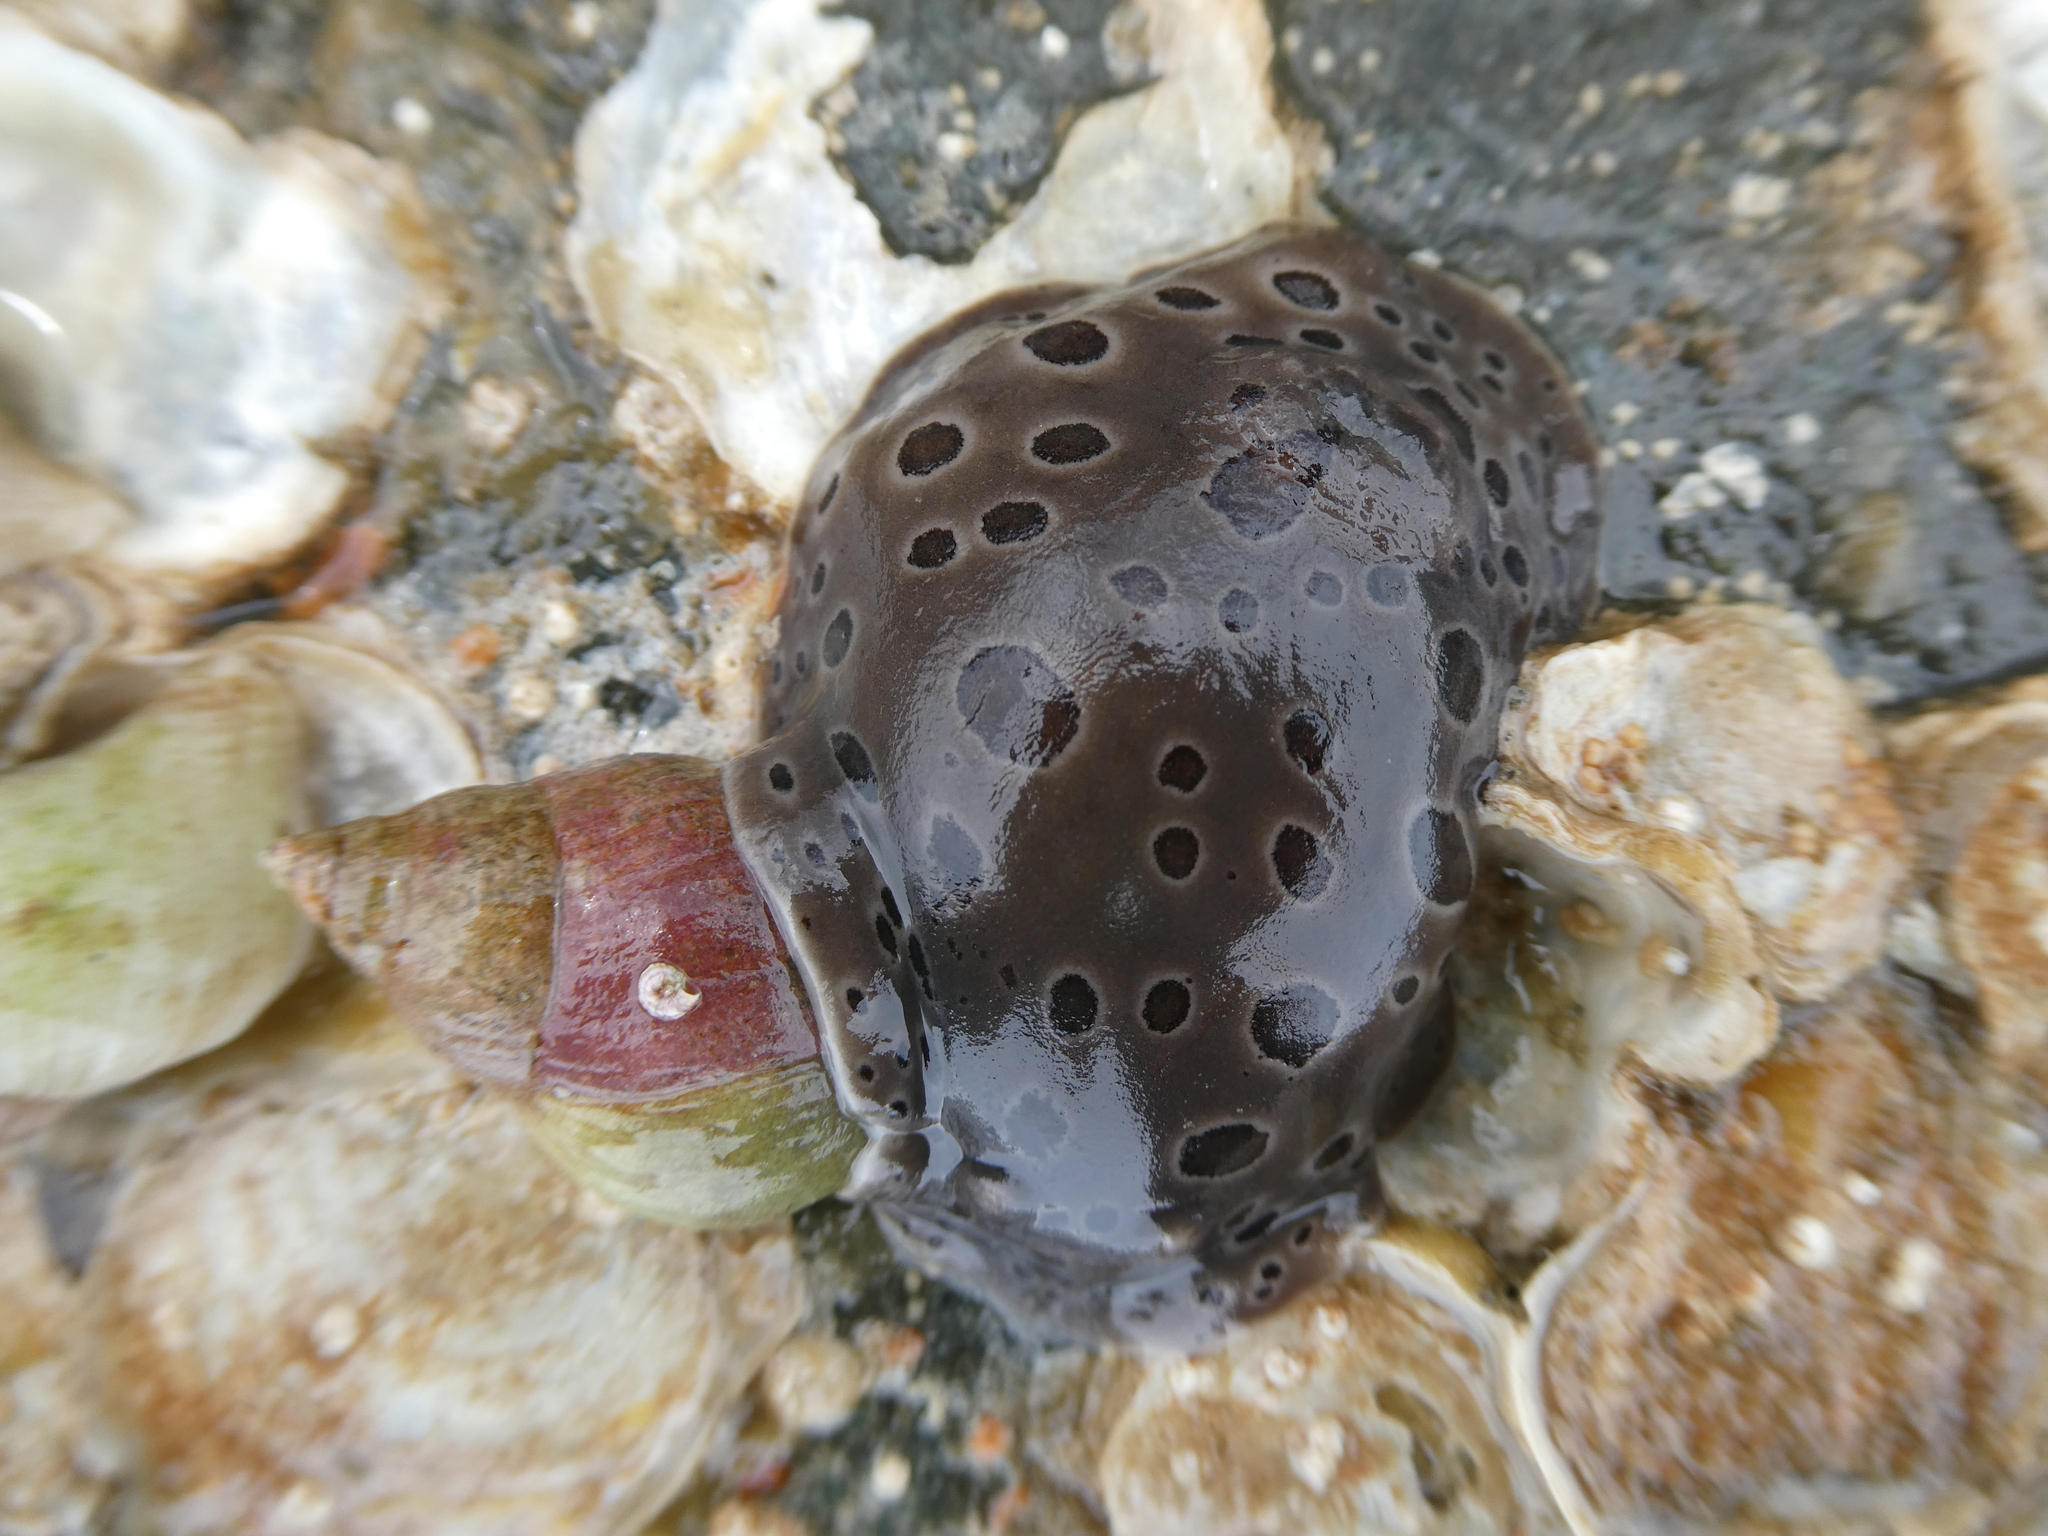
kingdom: Animalia
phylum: Mollusca
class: Gastropoda
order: Nudibranchia
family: Discodorididae
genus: Diaulula
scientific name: Diaulula odonoghuei
